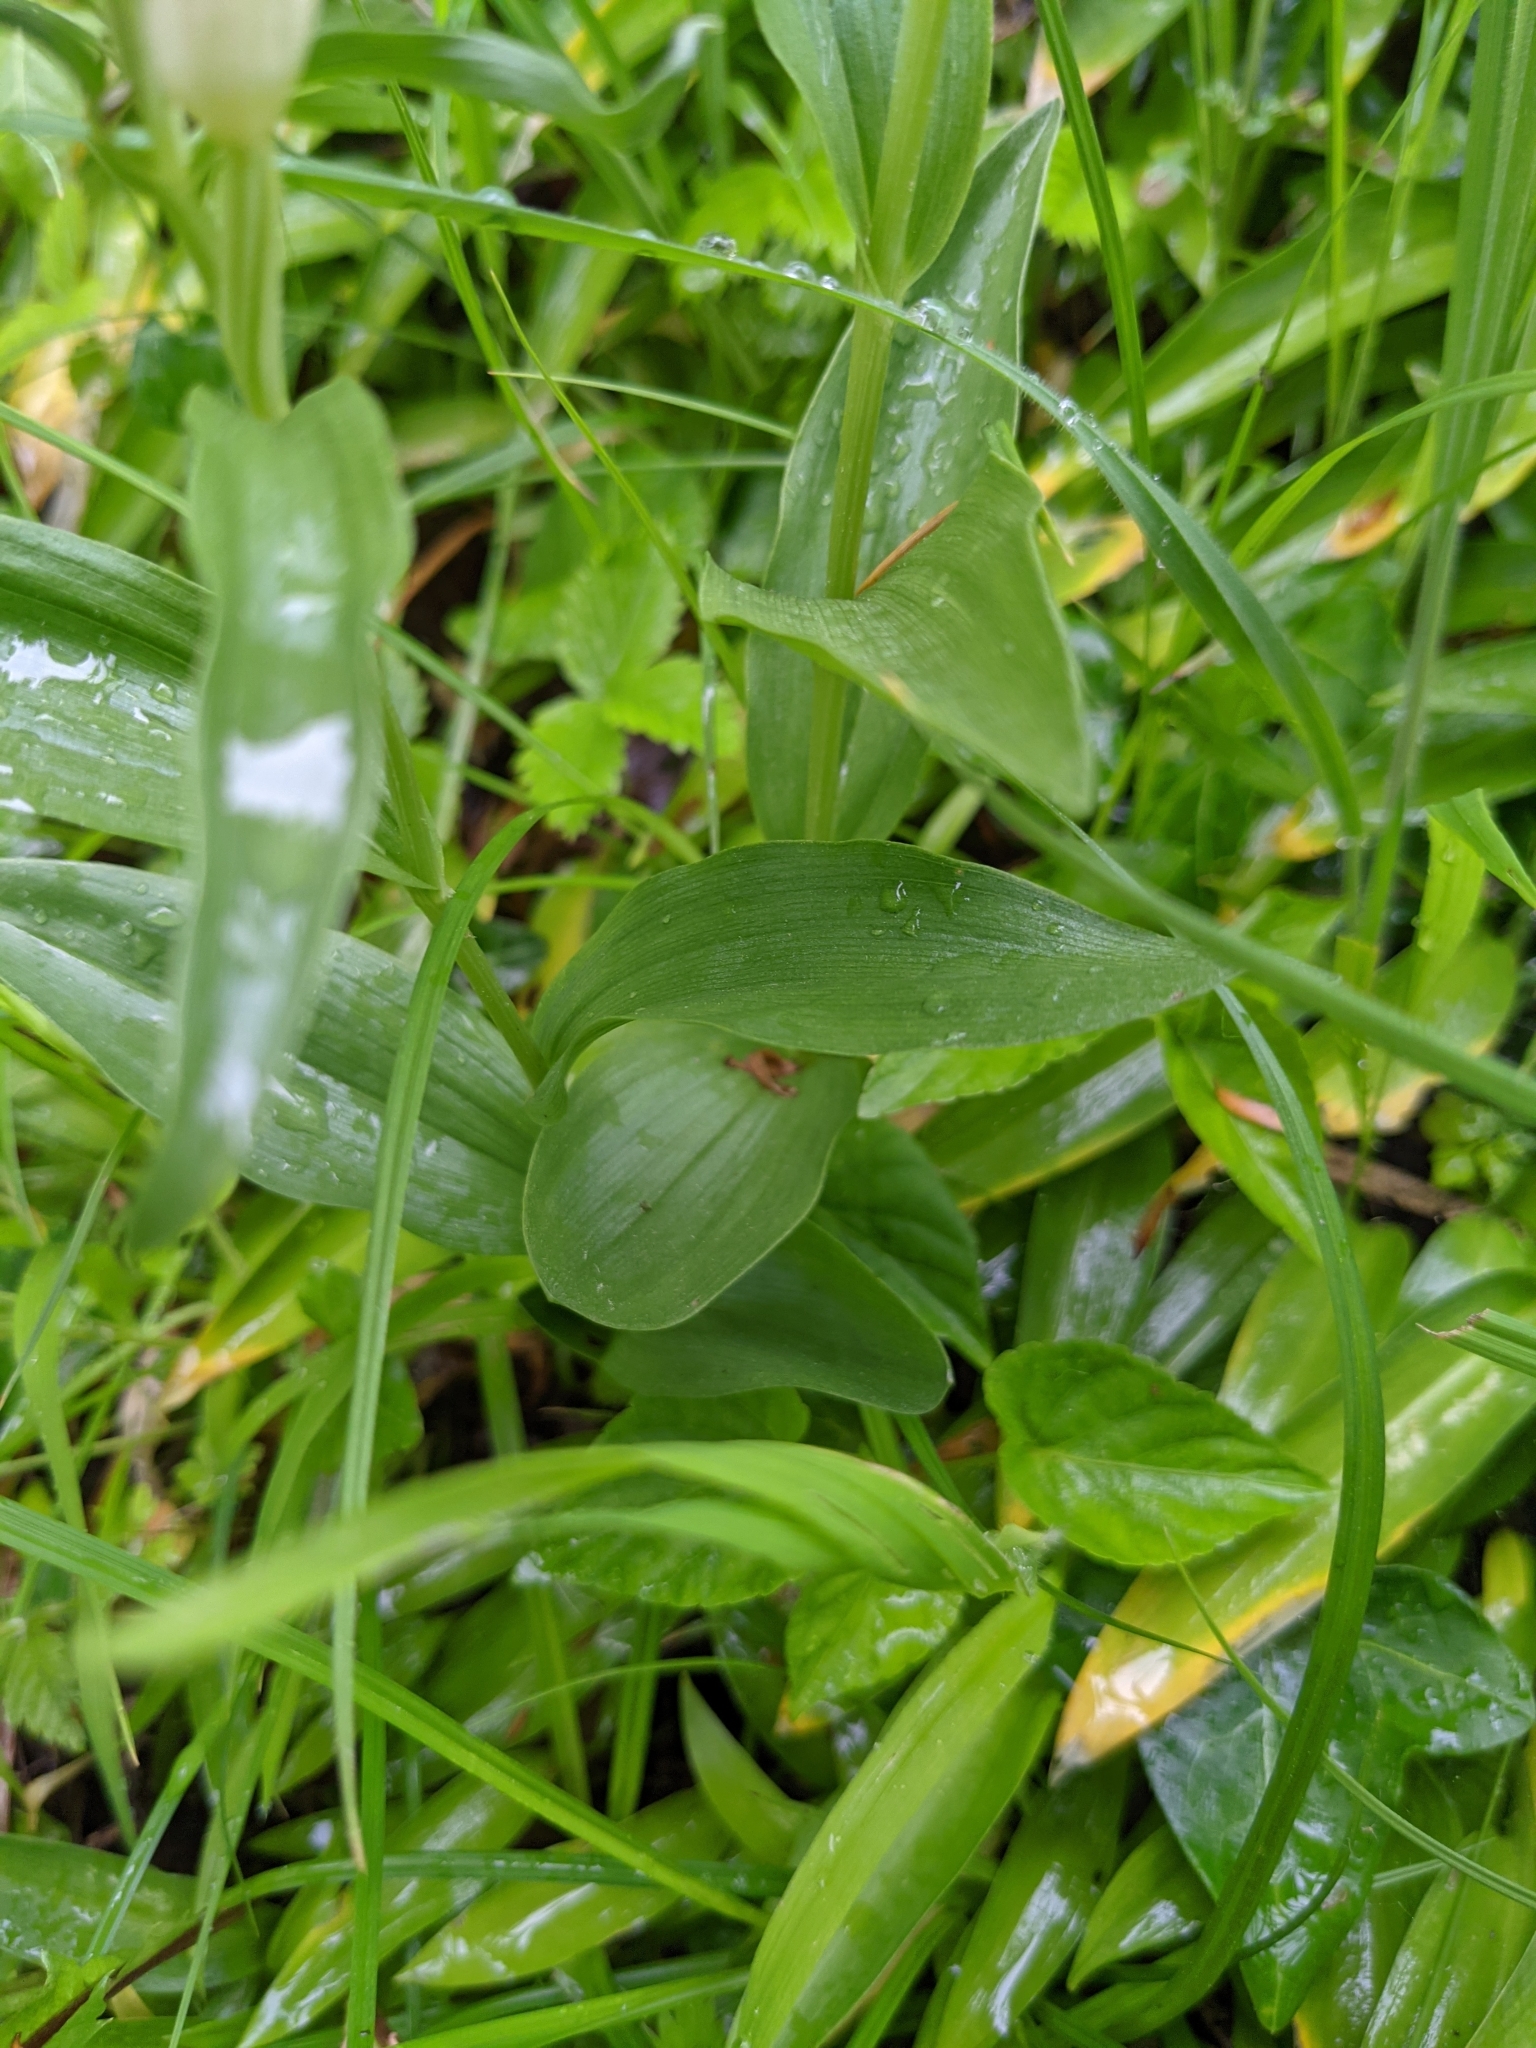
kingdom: Plantae
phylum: Tracheophyta
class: Liliopsida
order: Asparagales
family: Orchidaceae
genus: Cephalanthera
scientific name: Cephalanthera damasonium
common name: White helleborine
